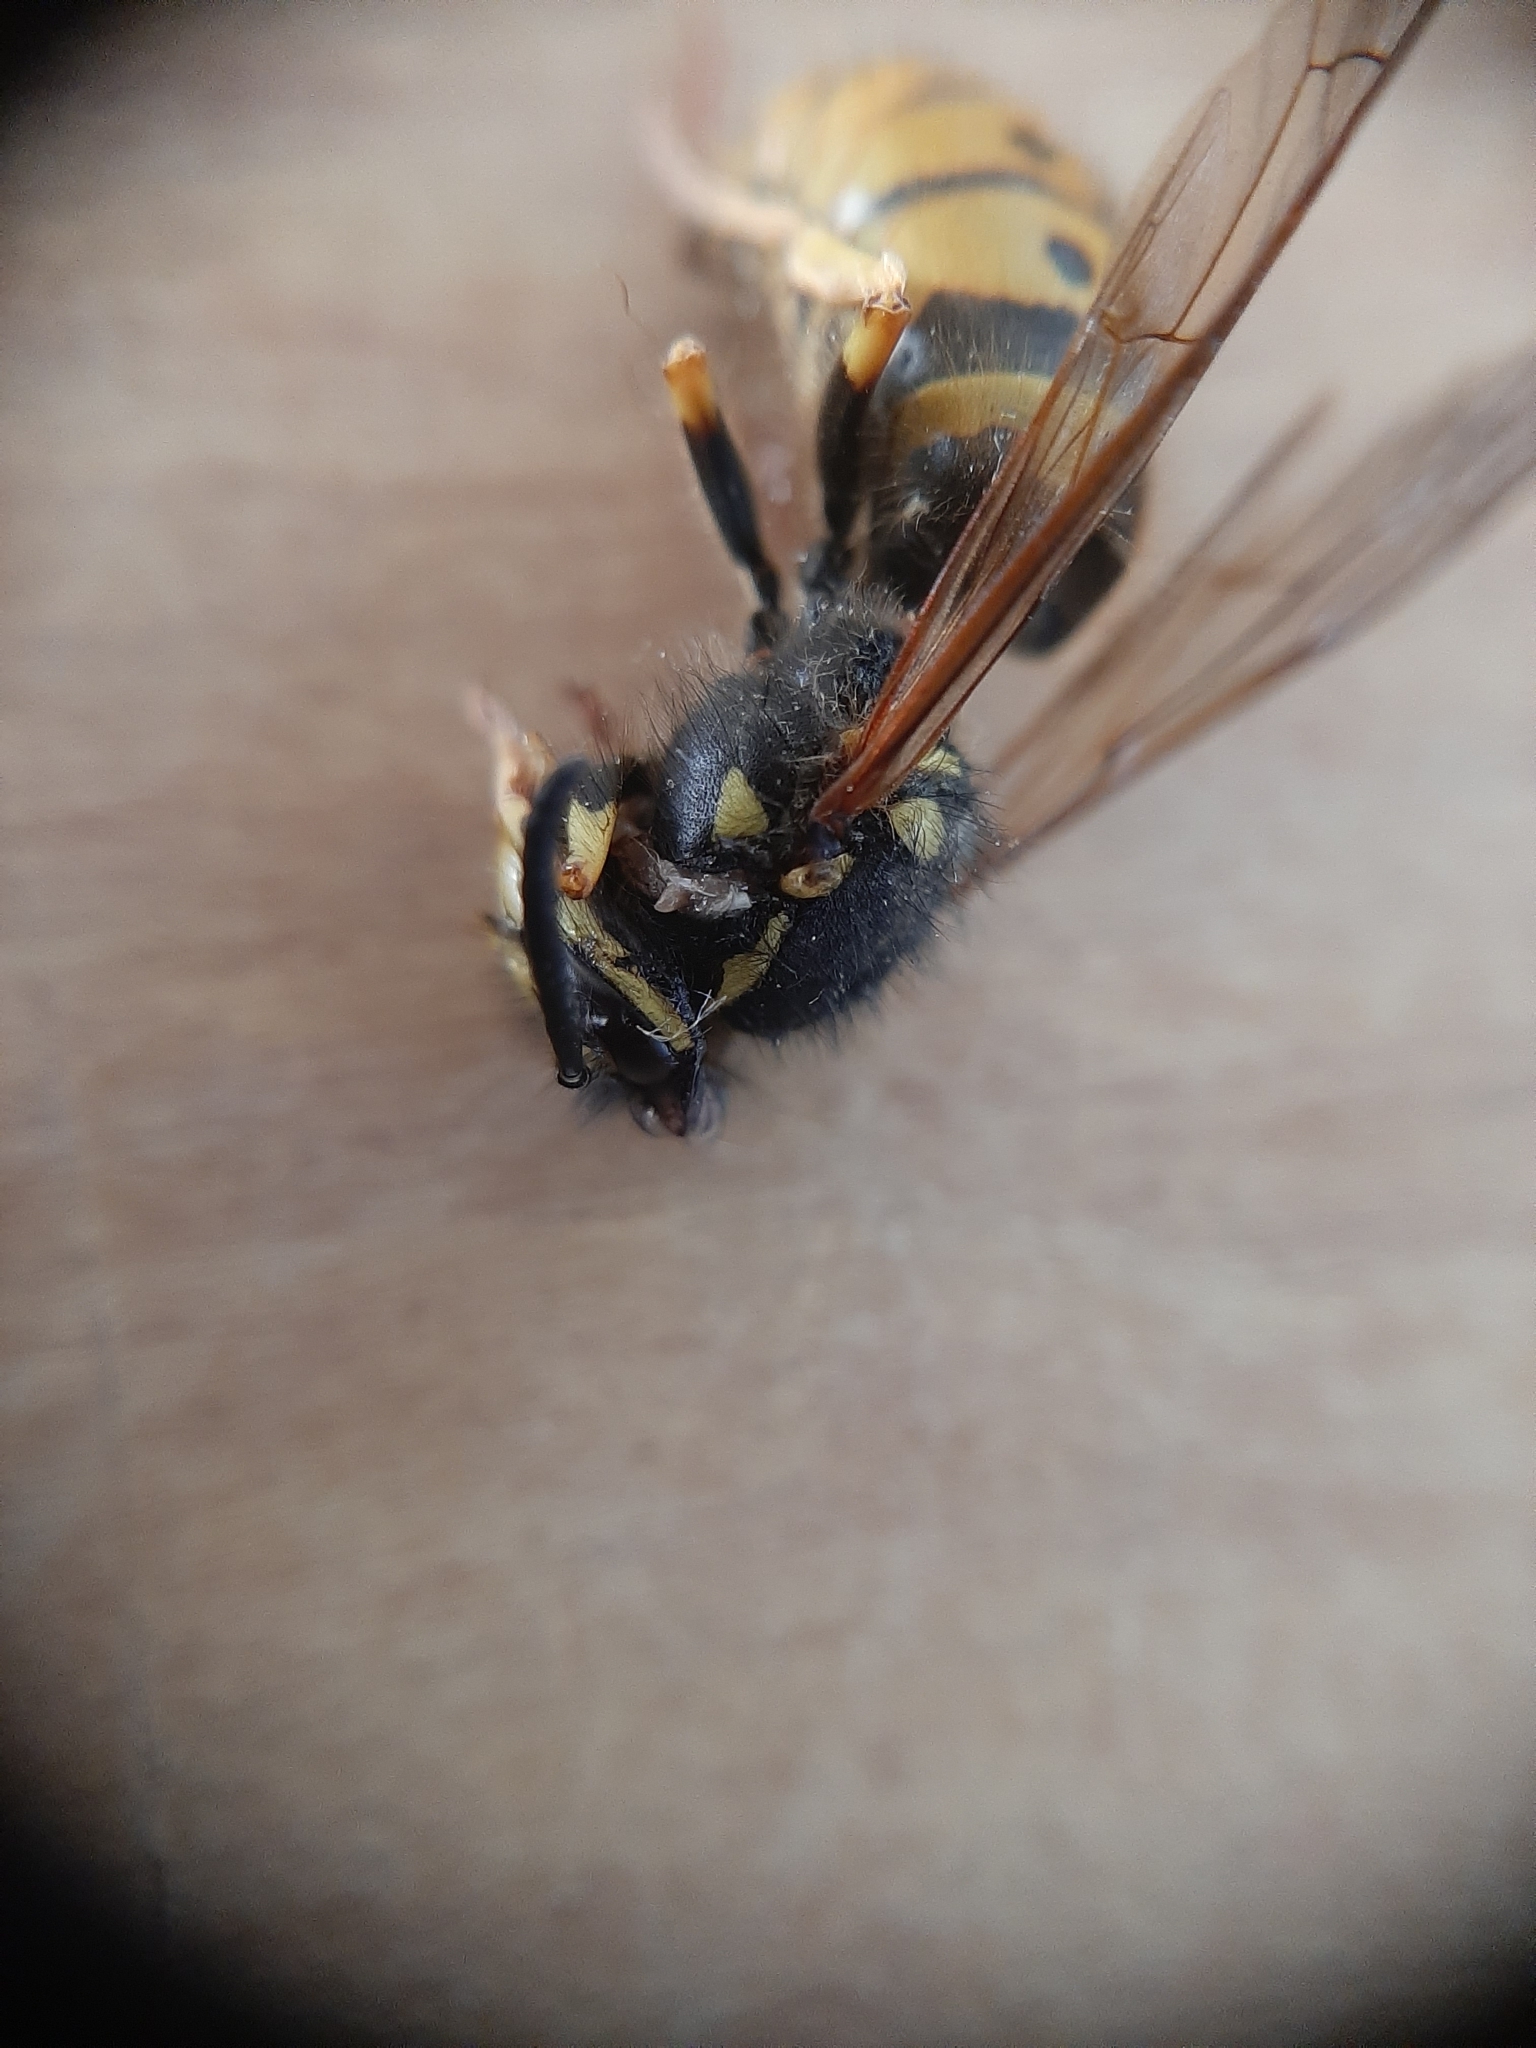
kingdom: Animalia
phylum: Arthropoda
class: Insecta
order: Hymenoptera
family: Vespidae
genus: Vespula
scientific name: Vespula germanica
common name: German wasp
